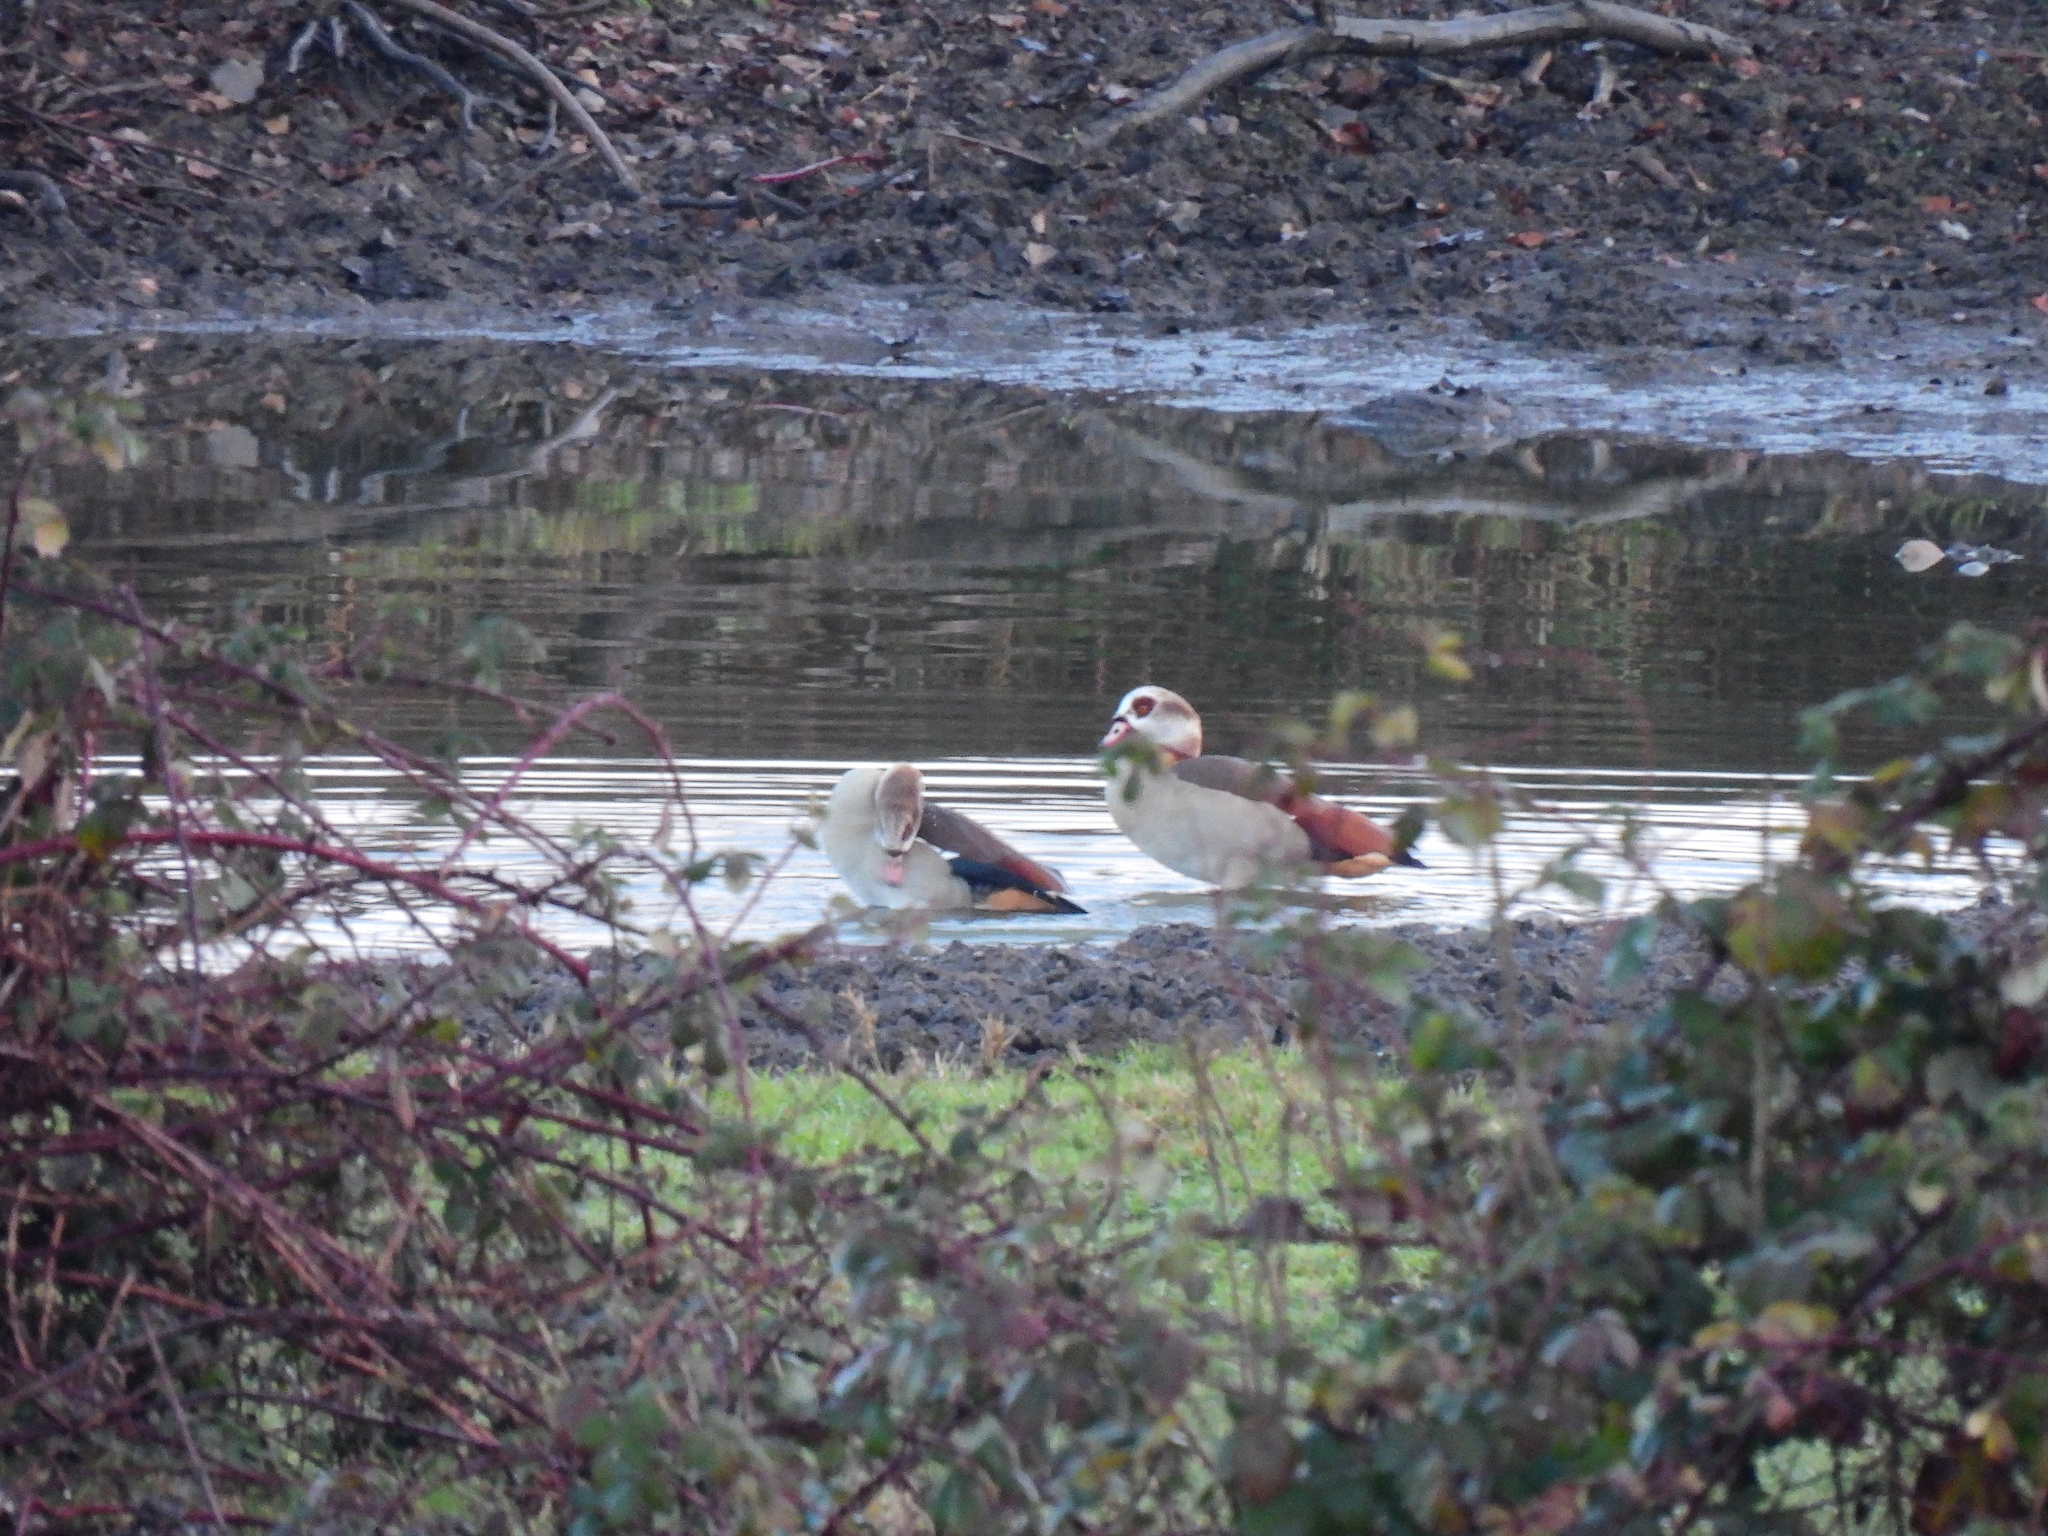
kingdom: Animalia
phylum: Chordata
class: Aves
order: Anseriformes
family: Anatidae
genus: Alopochen
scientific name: Alopochen aegyptiaca
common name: Egyptian goose
